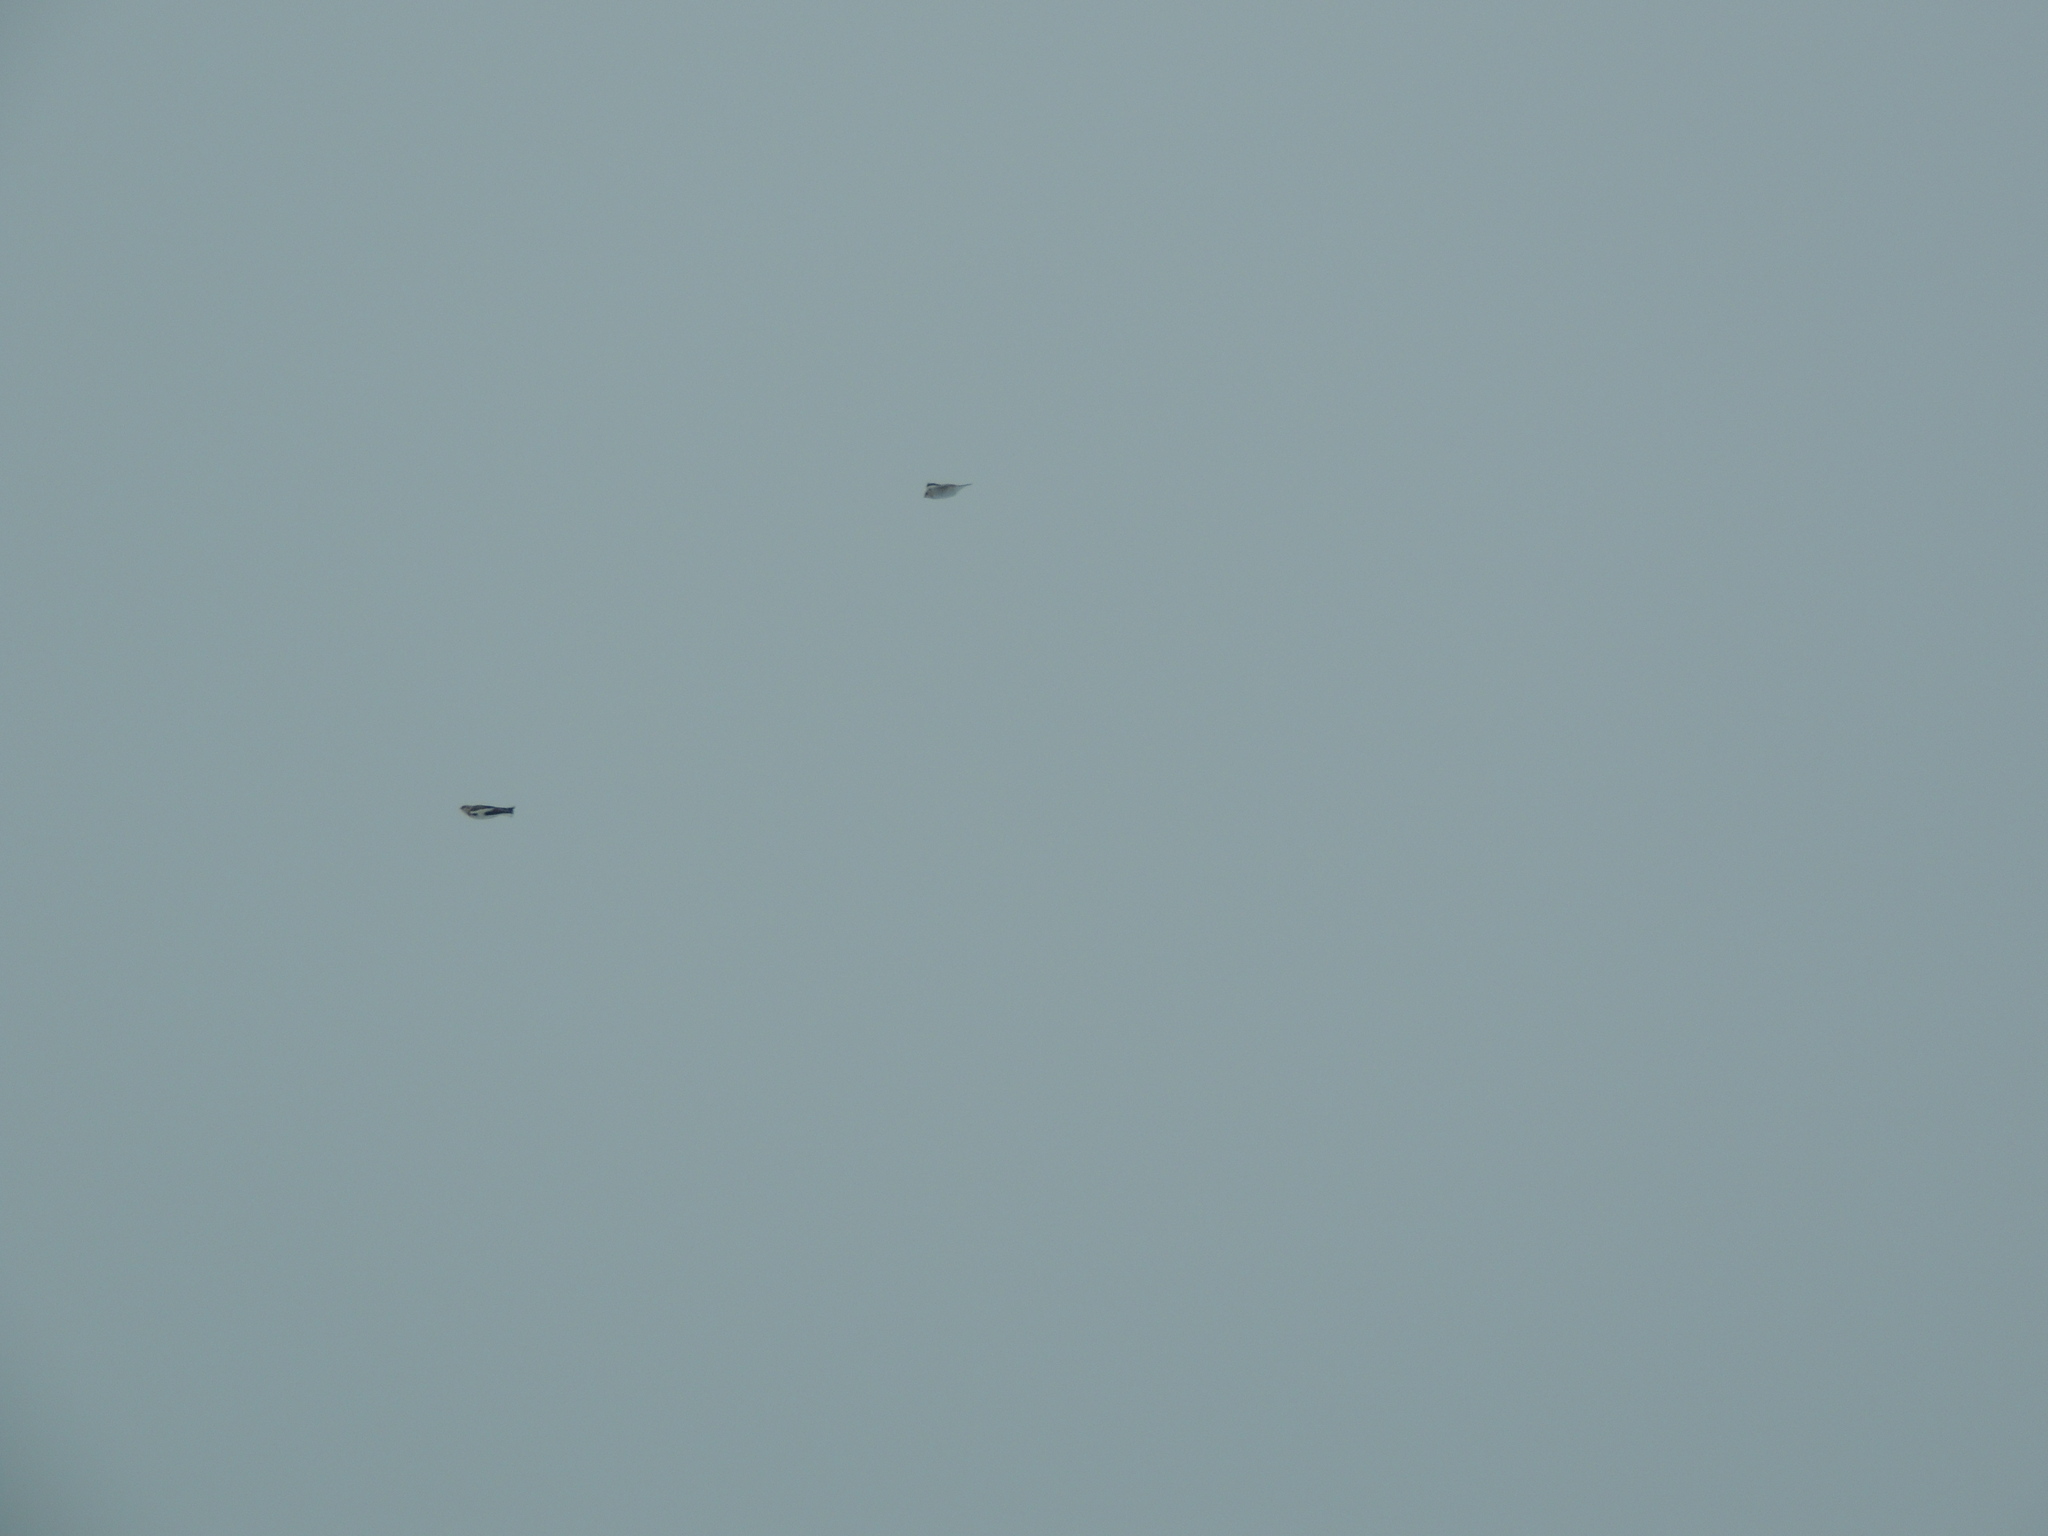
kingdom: Animalia
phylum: Chordata
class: Aves
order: Passeriformes
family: Calcariidae
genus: Plectrophenax
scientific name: Plectrophenax nivalis
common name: Snow bunting
